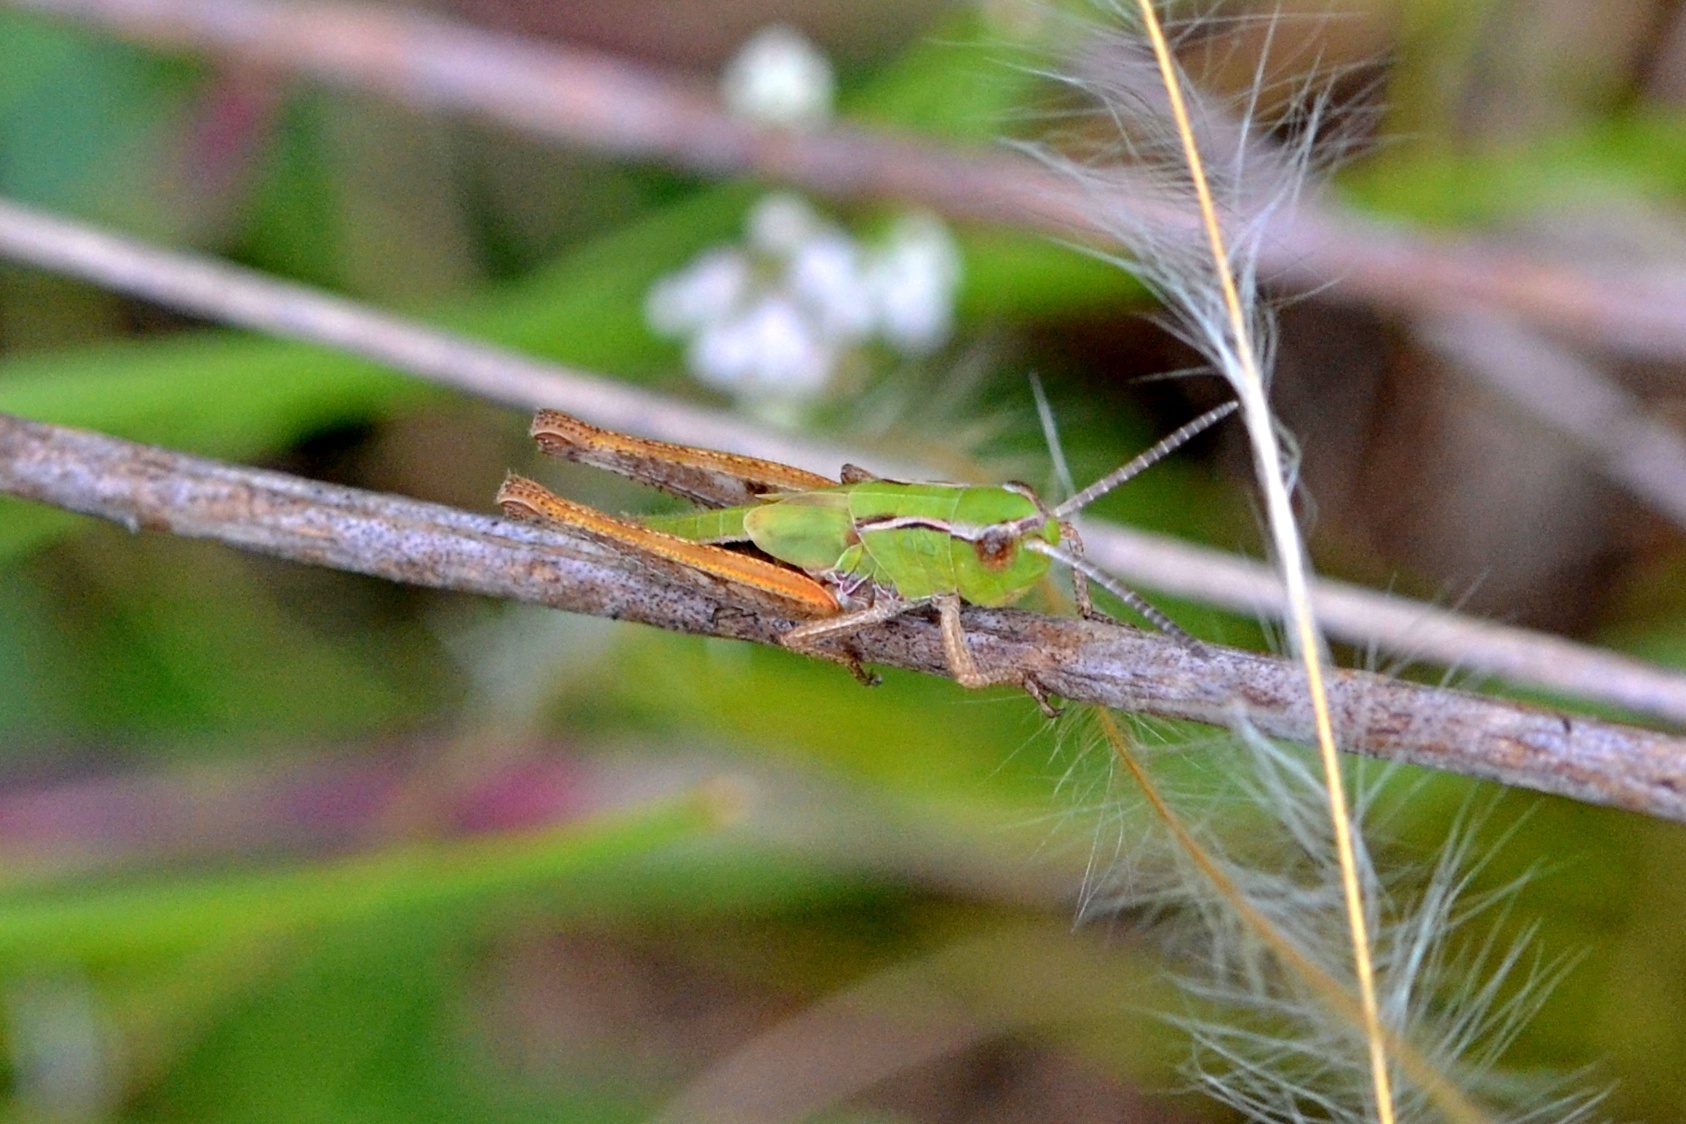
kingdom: Animalia
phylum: Arthropoda
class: Insecta
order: Orthoptera
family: Acrididae
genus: Stenobothrus
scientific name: Stenobothrus lineatus
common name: Stripe-winged grasshopper
